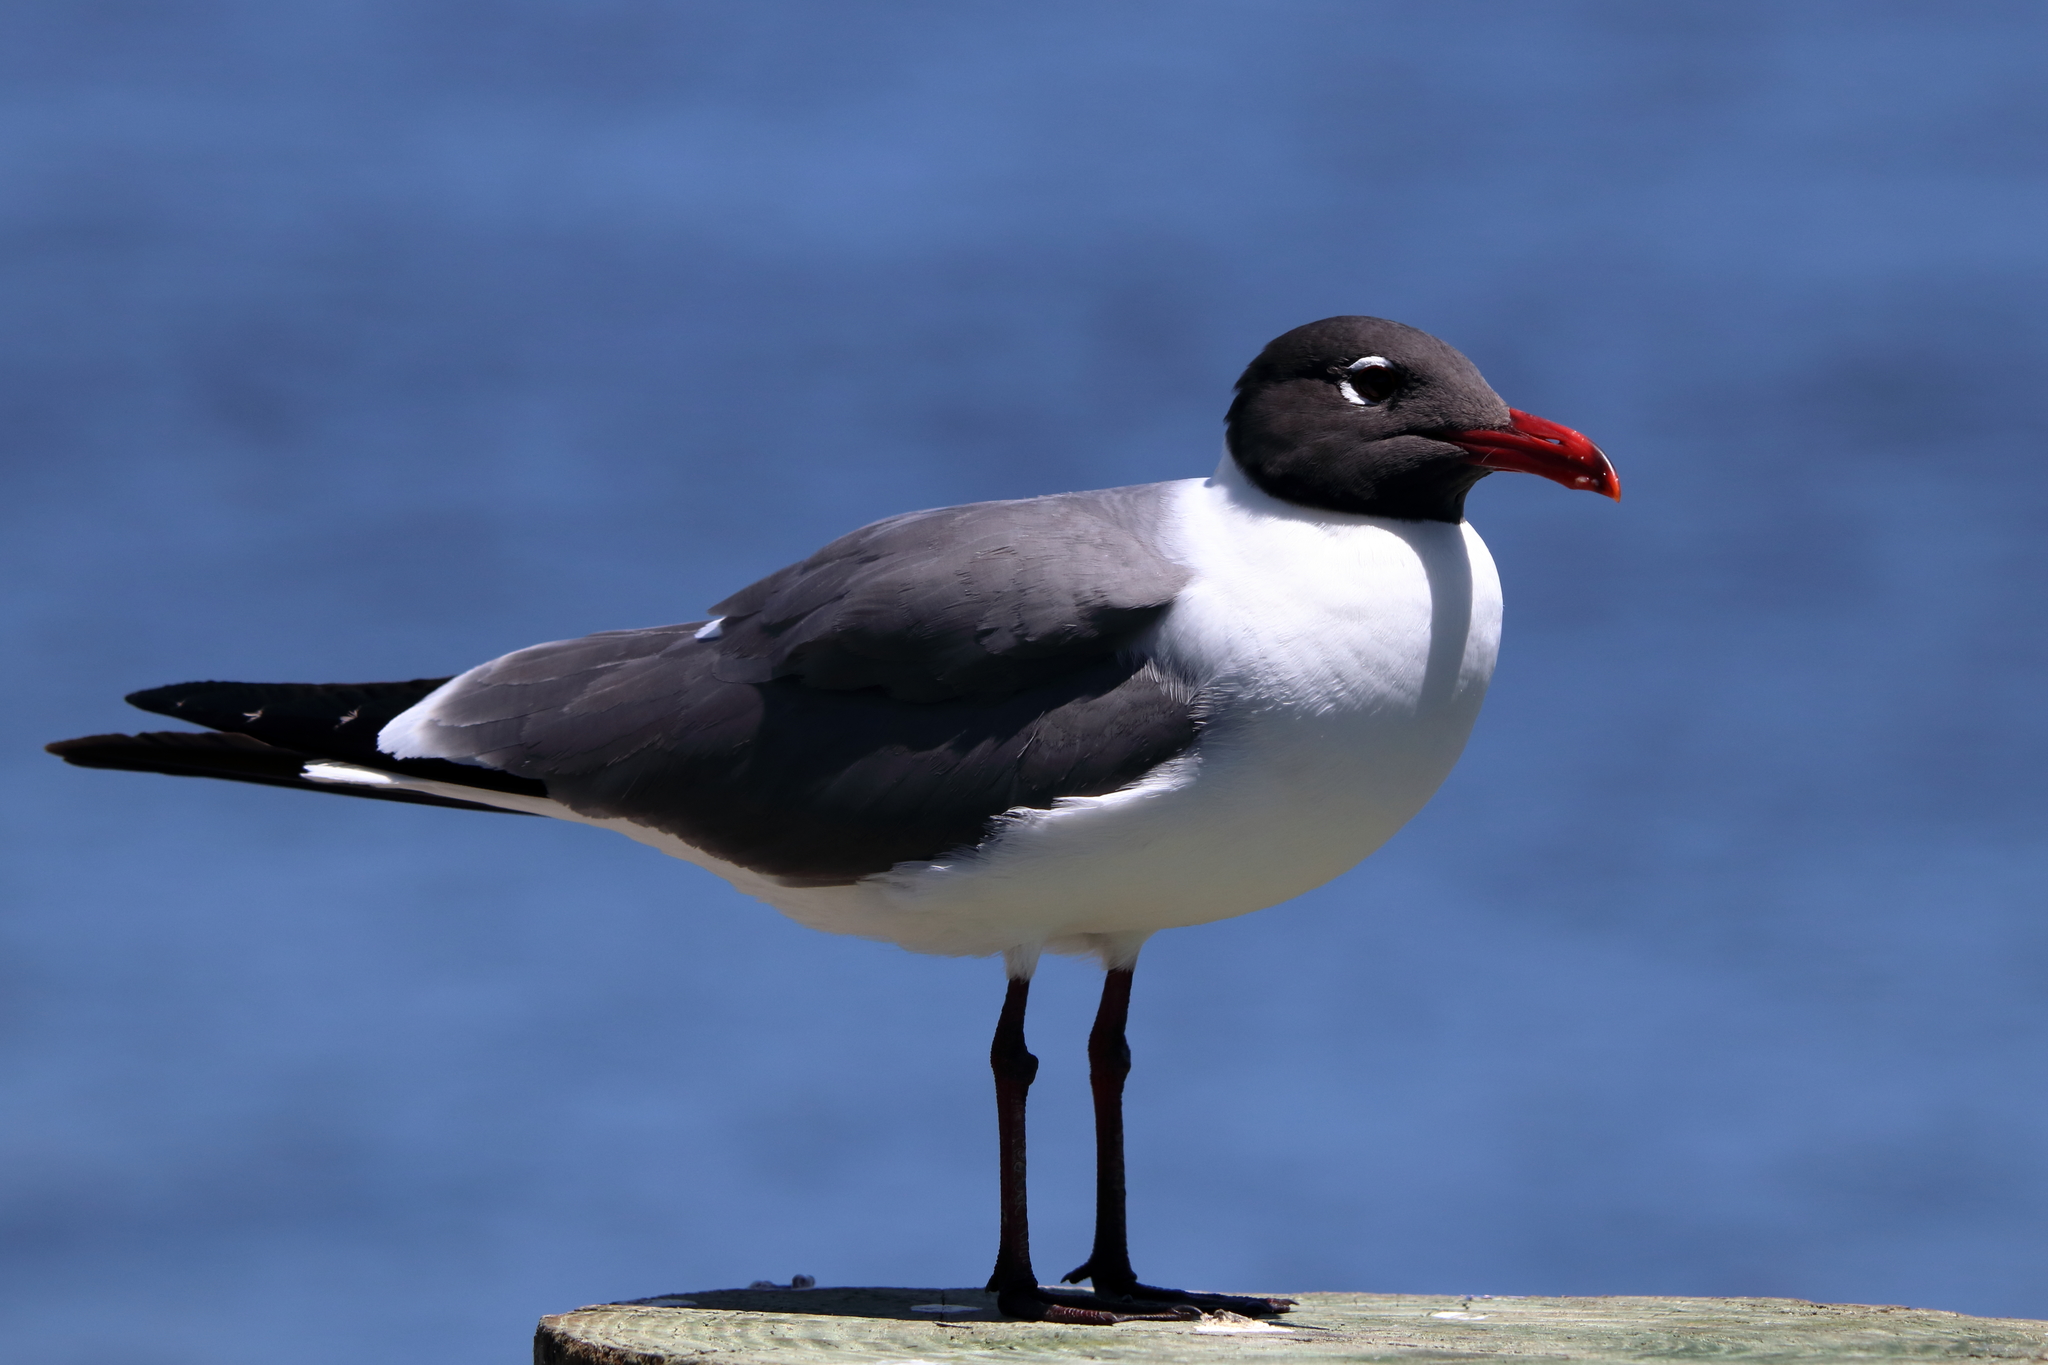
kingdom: Animalia
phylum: Chordata
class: Aves
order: Charadriiformes
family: Laridae
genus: Leucophaeus
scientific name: Leucophaeus atricilla
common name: Laughing gull
